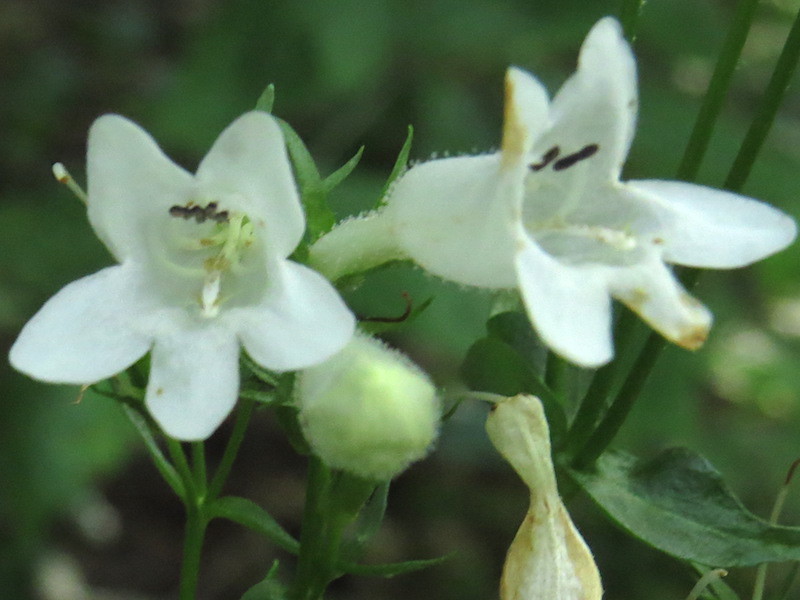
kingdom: Plantae
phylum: Tracheophyta
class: Magnoliopsida
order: Lamiales
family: Plantaginaceae
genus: Penstemon
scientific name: Penstemon digitalis
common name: Foxglove beardtongue
